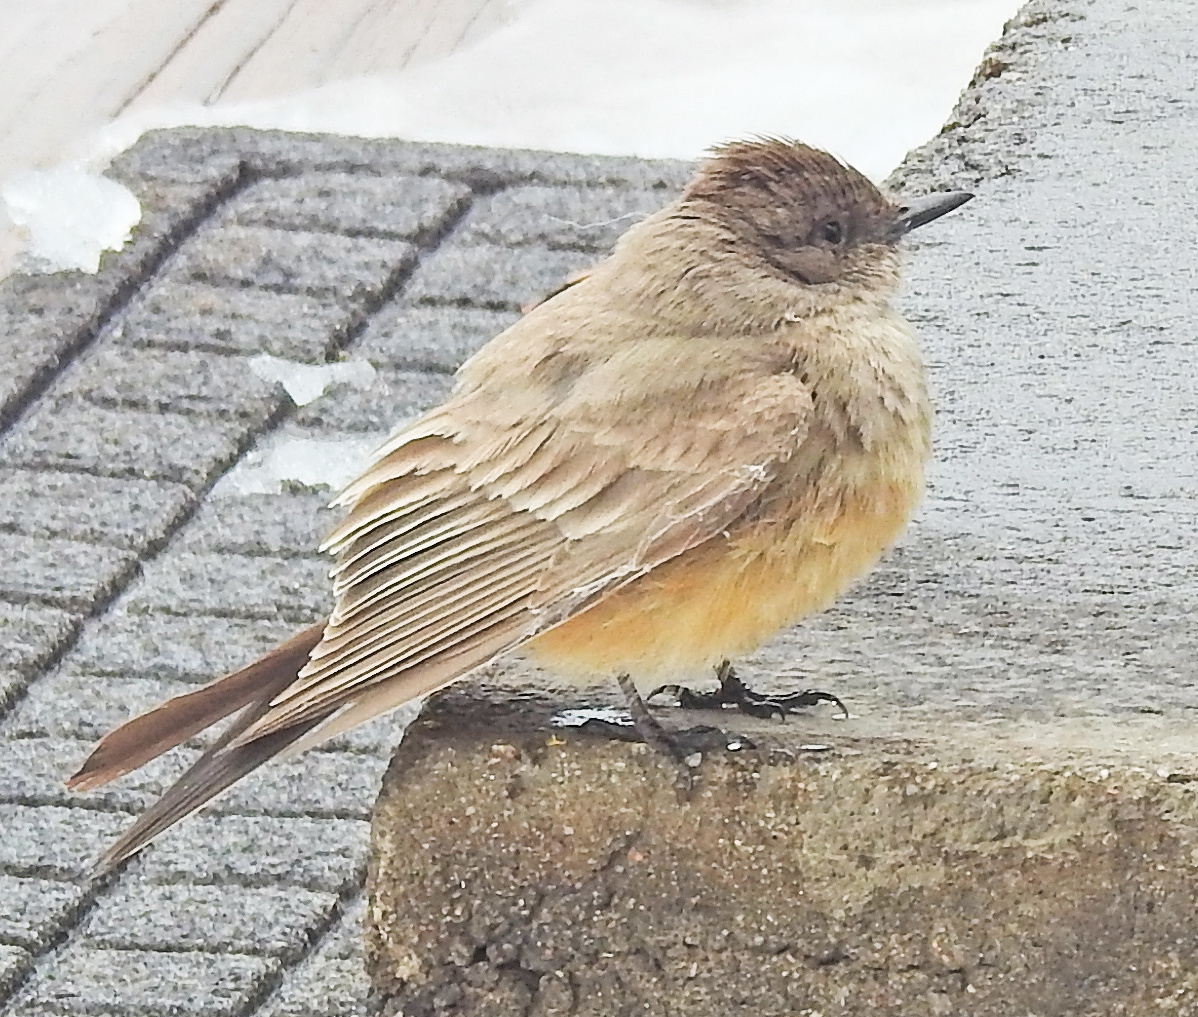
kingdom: Animalia
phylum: Chordata
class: Aves
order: Passeriformes
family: Tyrannidae
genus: Sayornis
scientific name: Sayornis saya
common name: Say's phoebe
